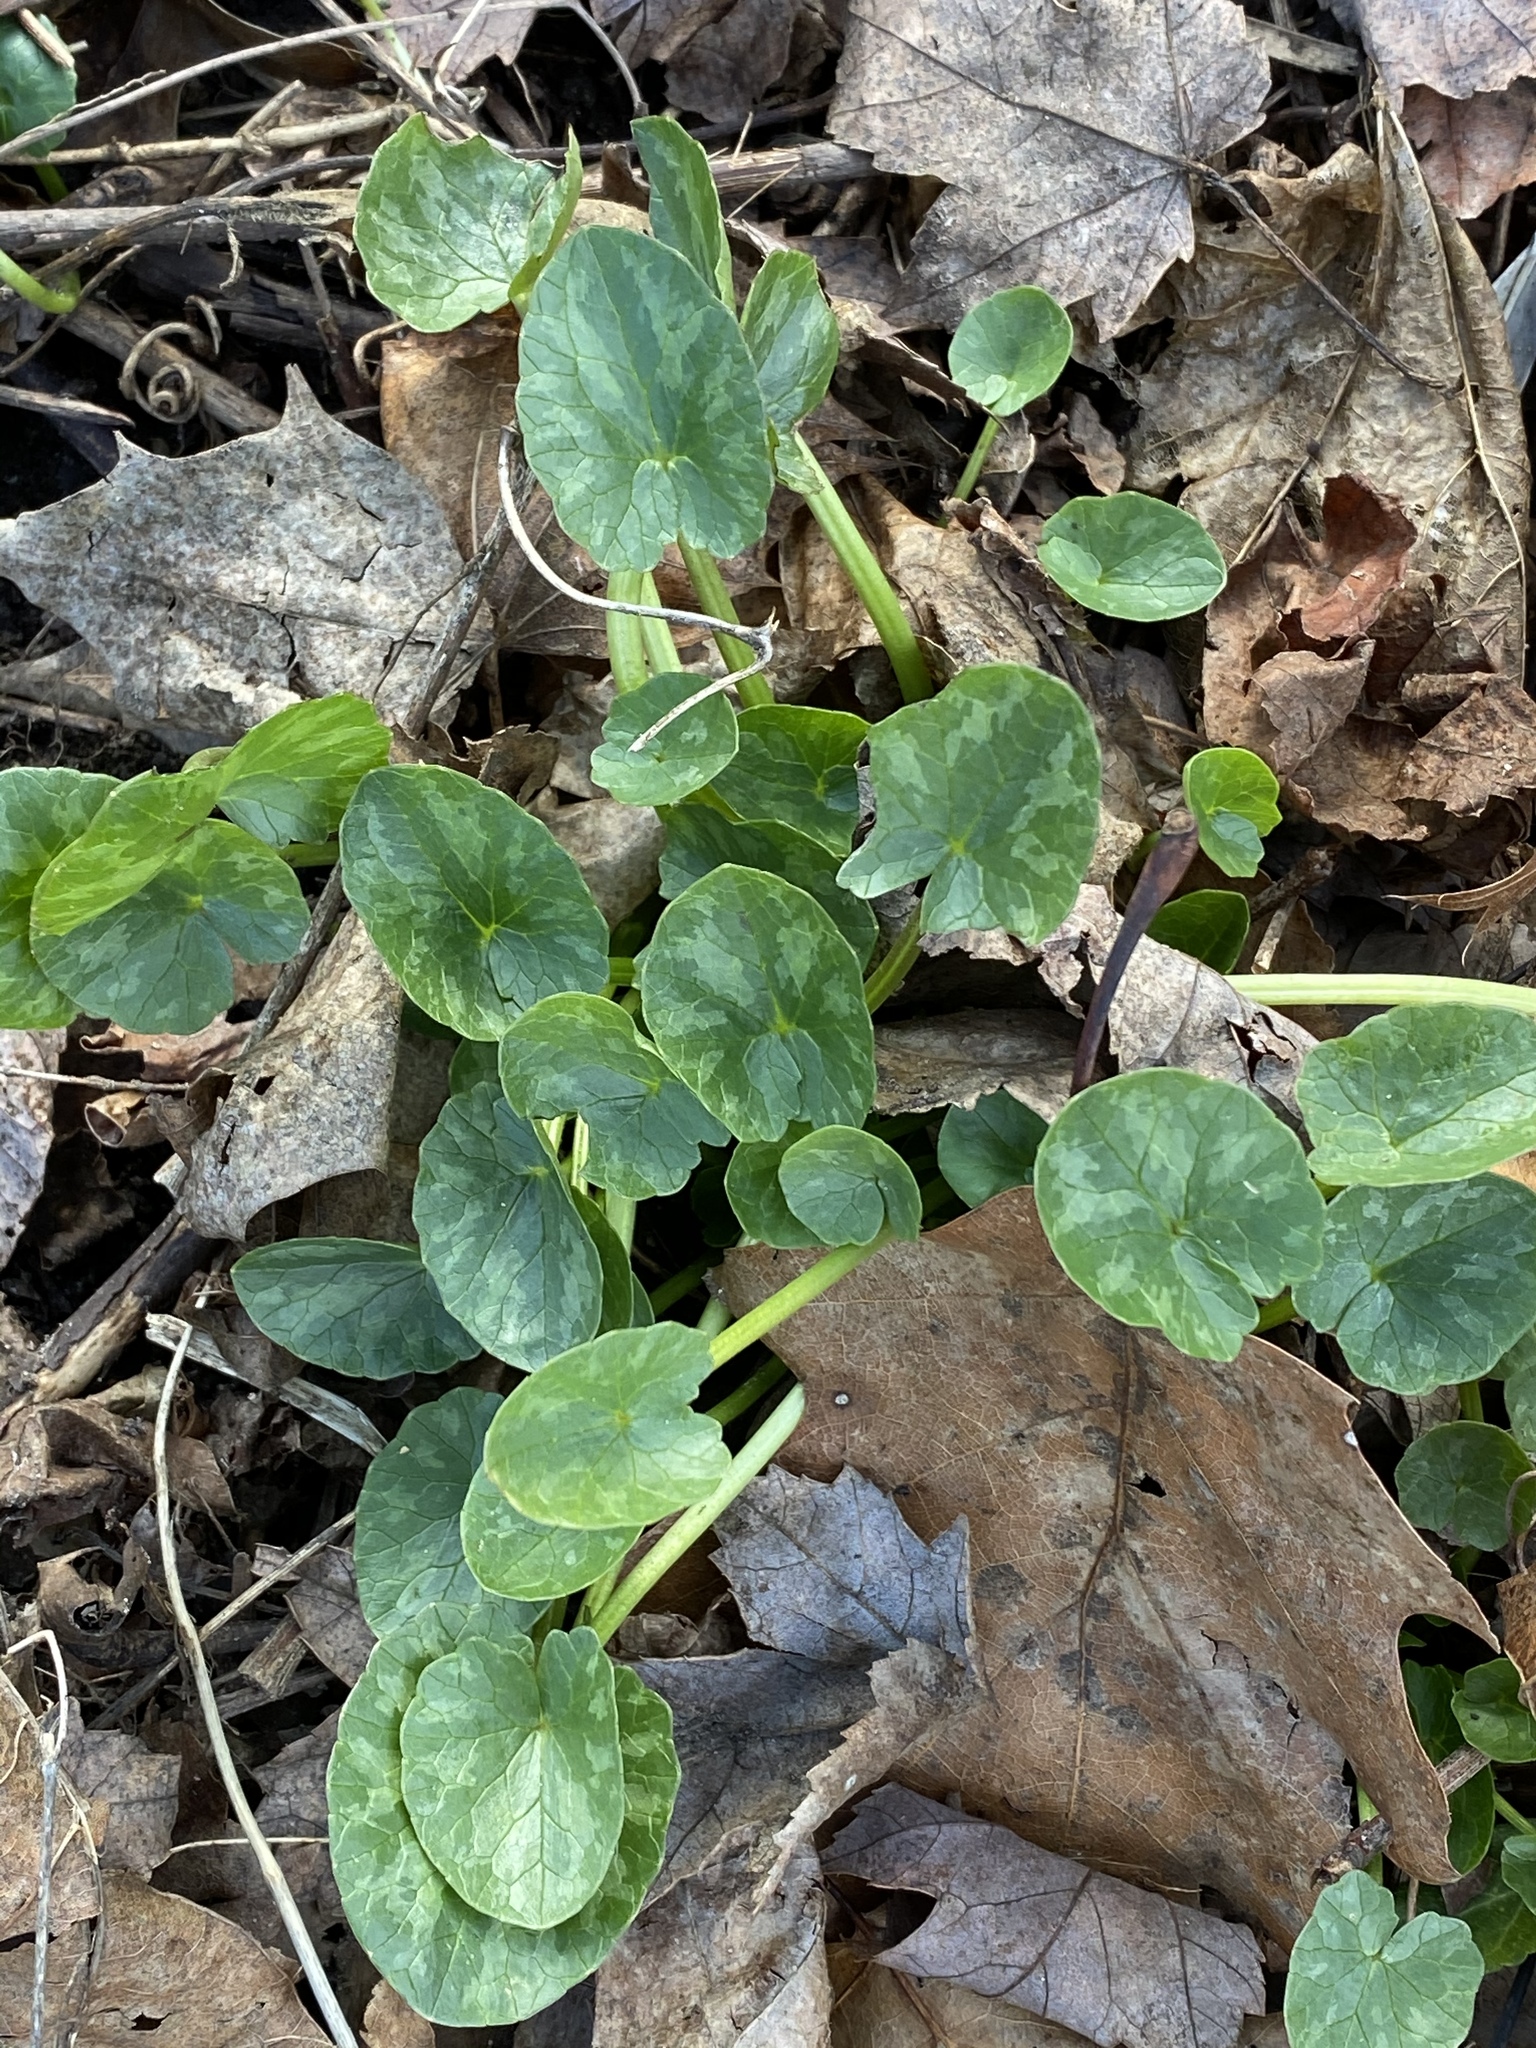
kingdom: Plantae
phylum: Tracheophyta
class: Magnoliopsida
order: Ranunculales
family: Ranunculaceae
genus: Ficaria
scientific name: Ficaria verna
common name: Lesser celandine
